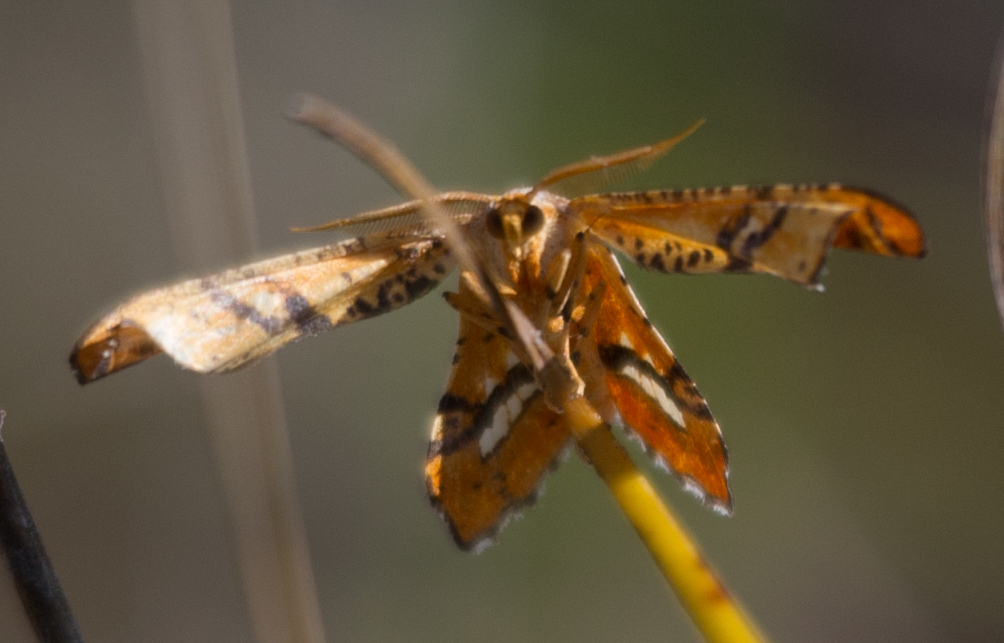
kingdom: Animalia
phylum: Arthropoda
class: Insecta
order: Lepidoptera
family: Geometridae
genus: Coenina
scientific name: Coenina poecilaria
